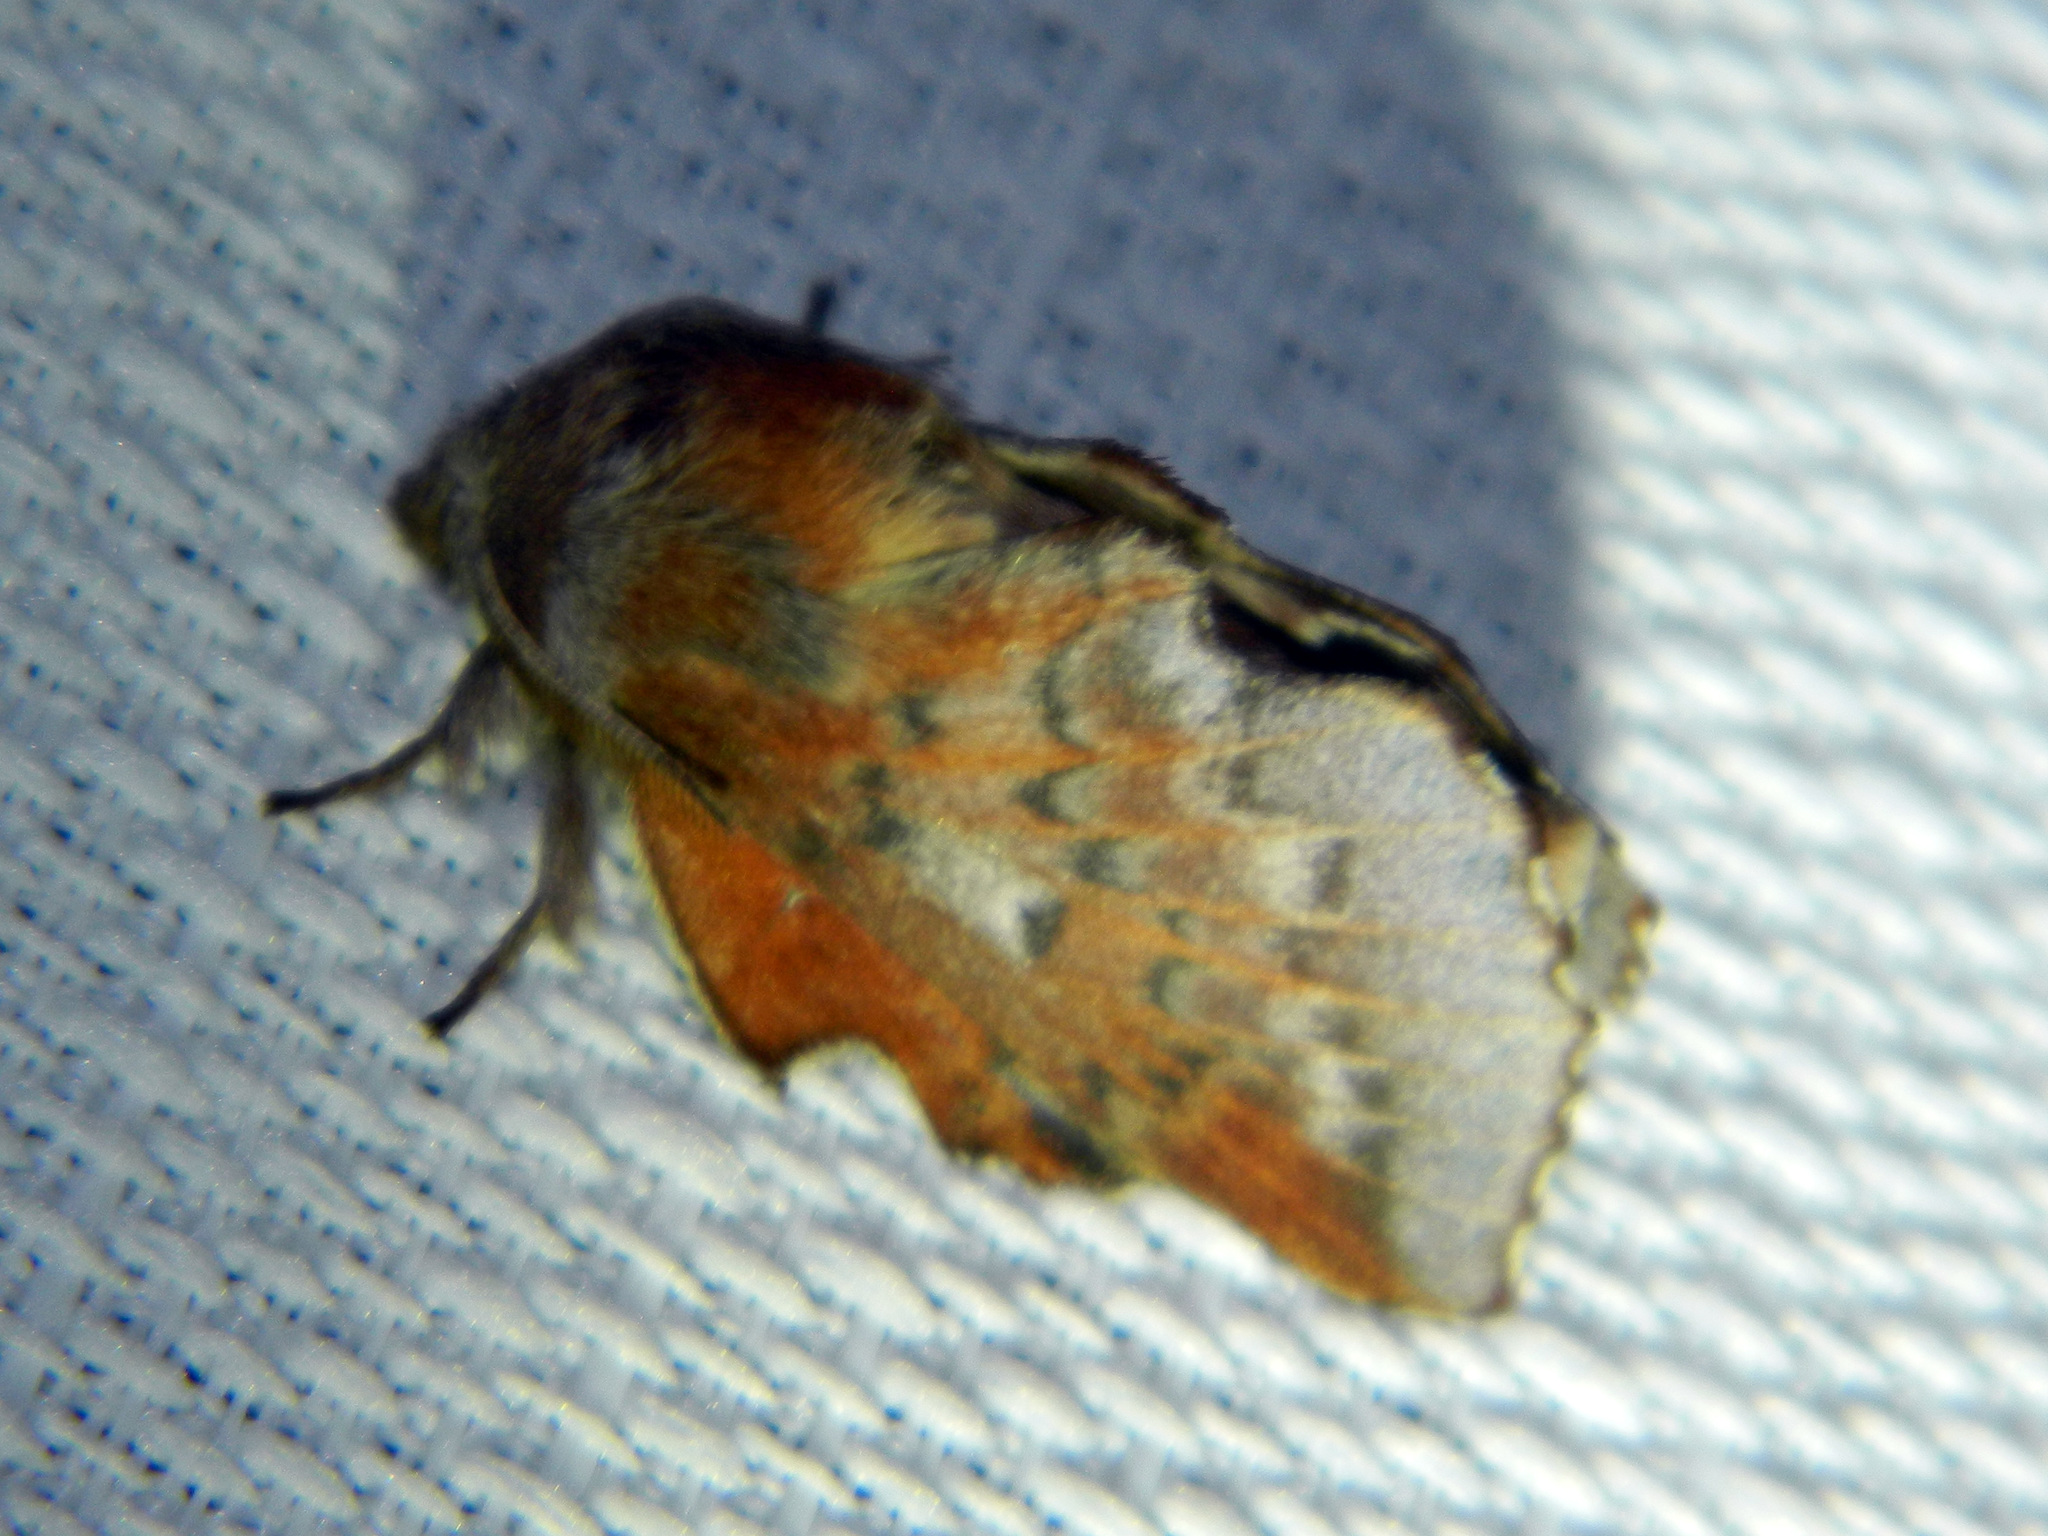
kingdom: Animalia
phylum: Arthropoda
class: Insecta
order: Lepidoptera
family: Lasiocampidae
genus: Phyllodesma
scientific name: Phyllodesma americana
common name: American lappet moth
